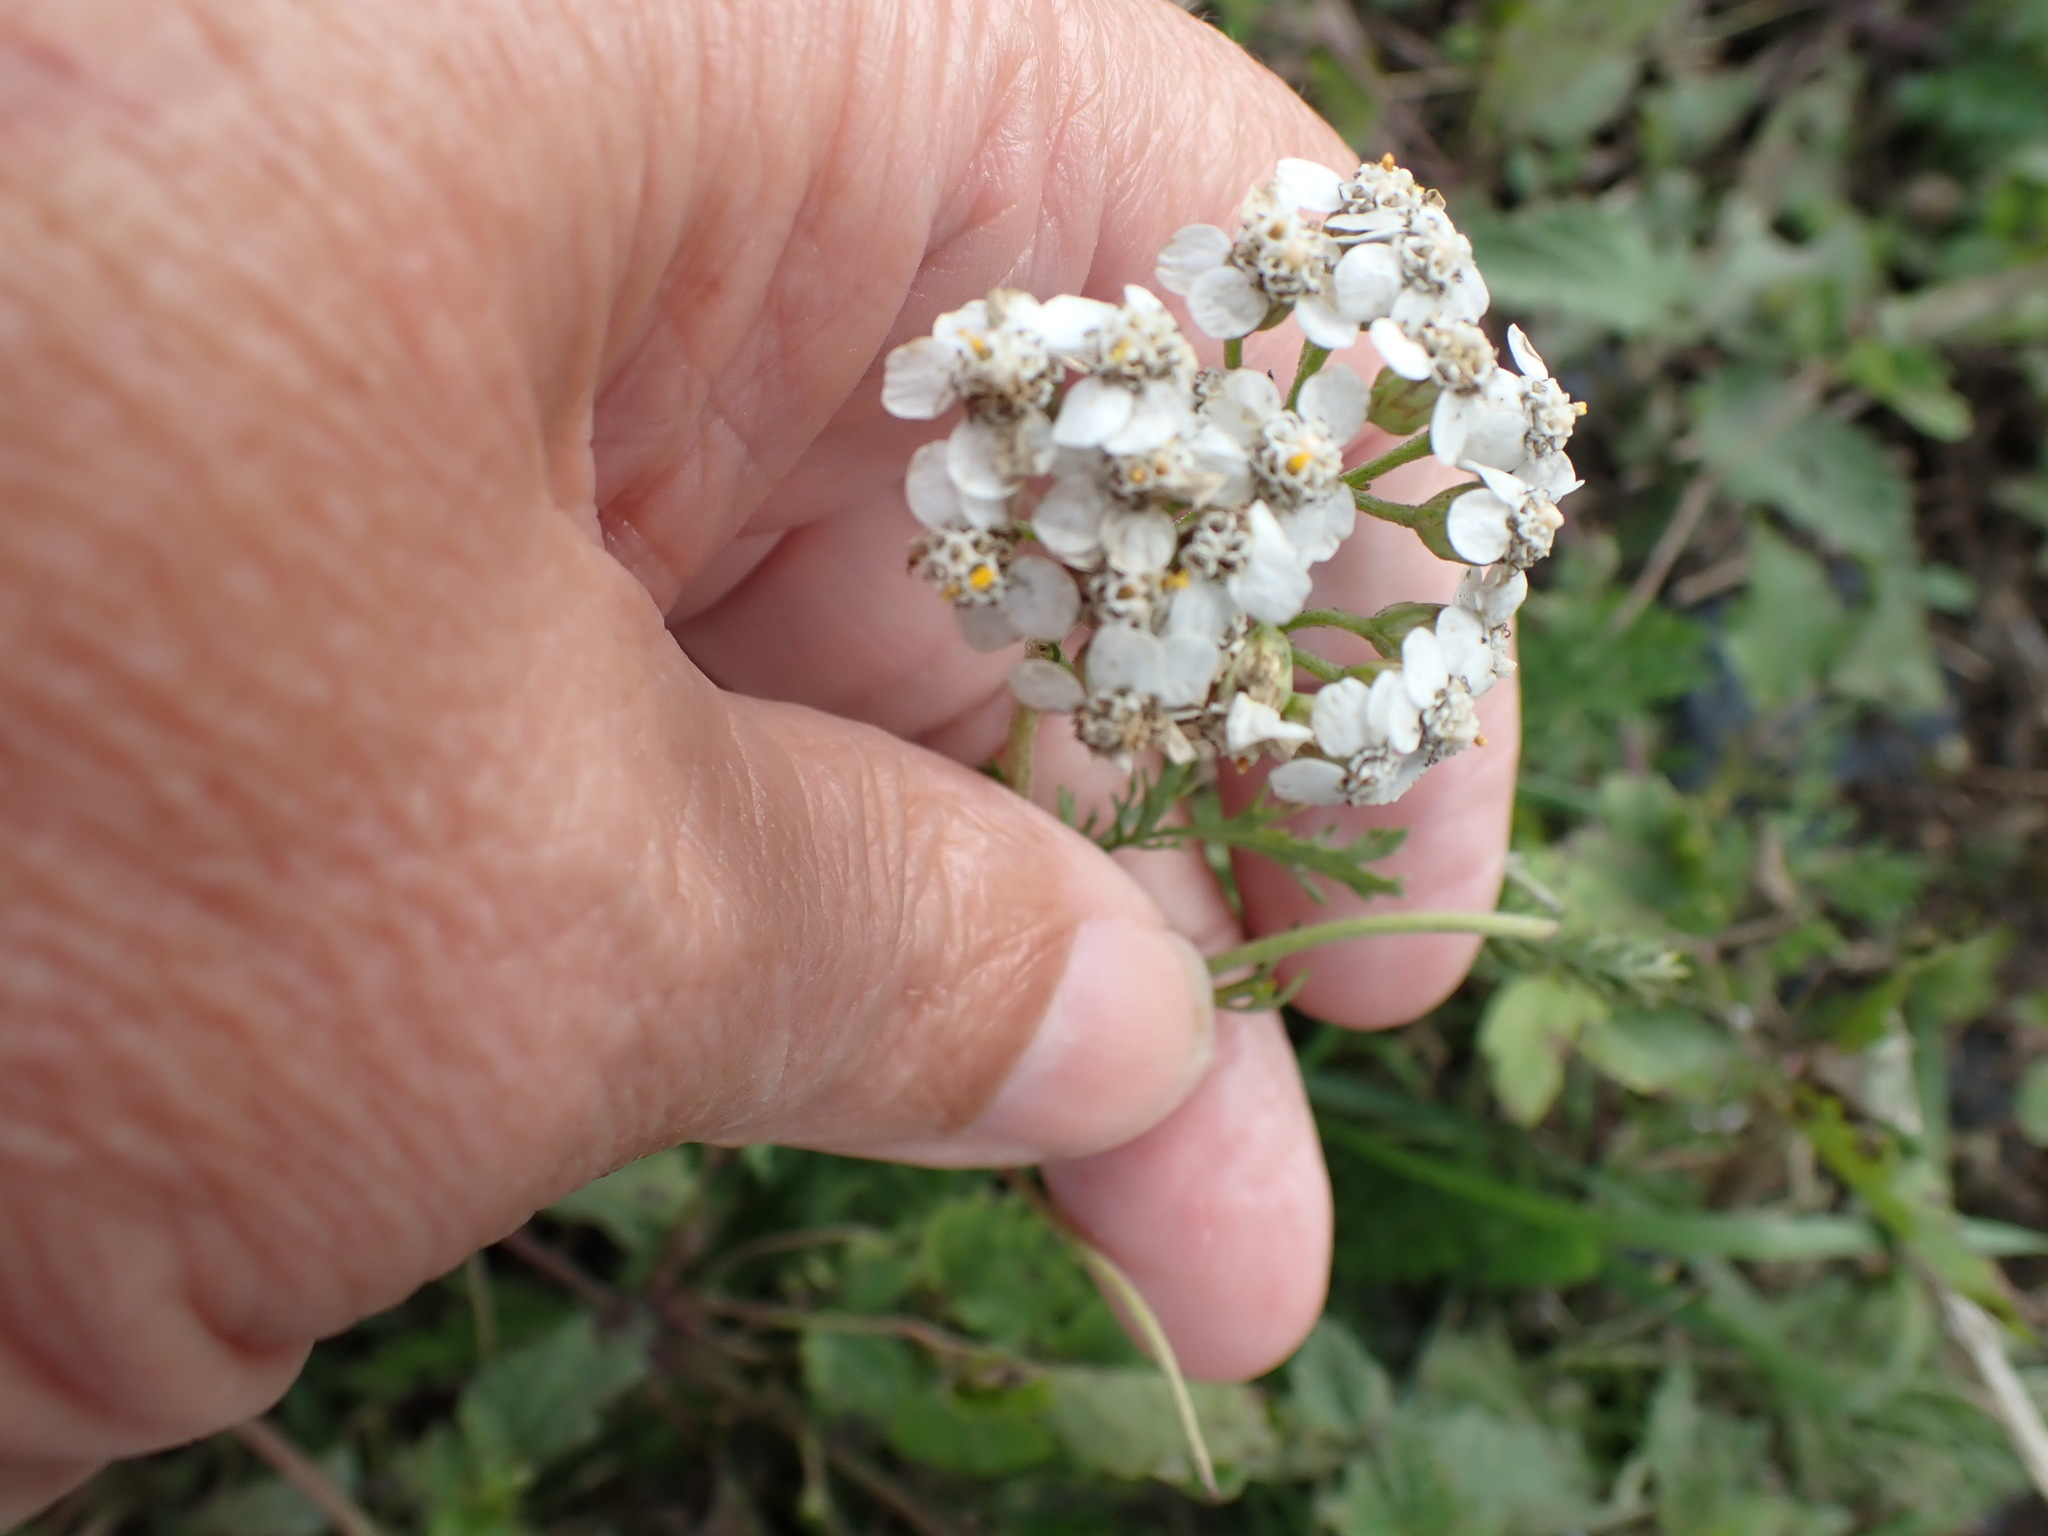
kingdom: Plantae
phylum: Tracheophyta
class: Magnoliopsida
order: Asterales
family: Asteraceae
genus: Achillea
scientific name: Achillea millefolium
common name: Yarrow
